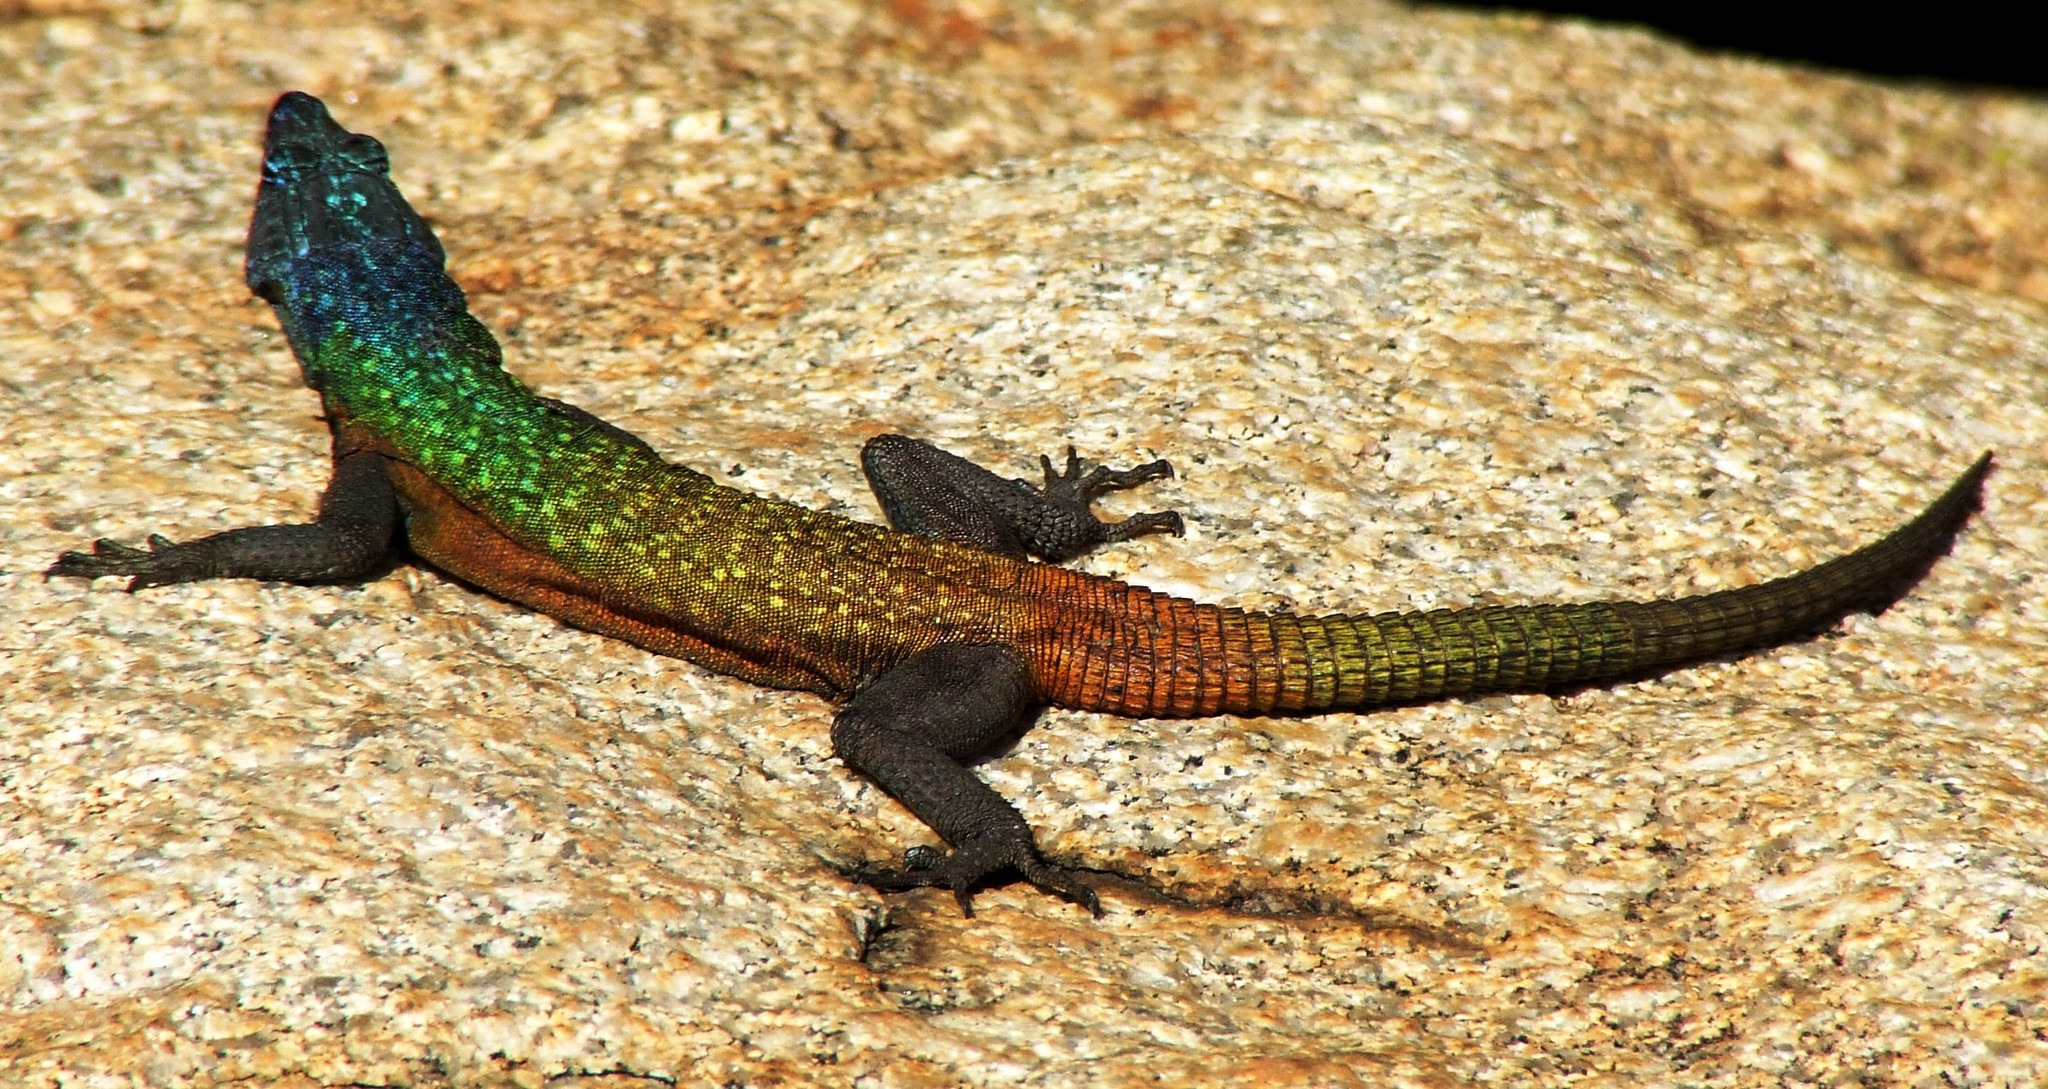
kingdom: Animalia
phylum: Chordata
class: Squamata
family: Cordylidae
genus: Platysaurus
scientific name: Platysaurus intermedius
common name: Common flat lizard
